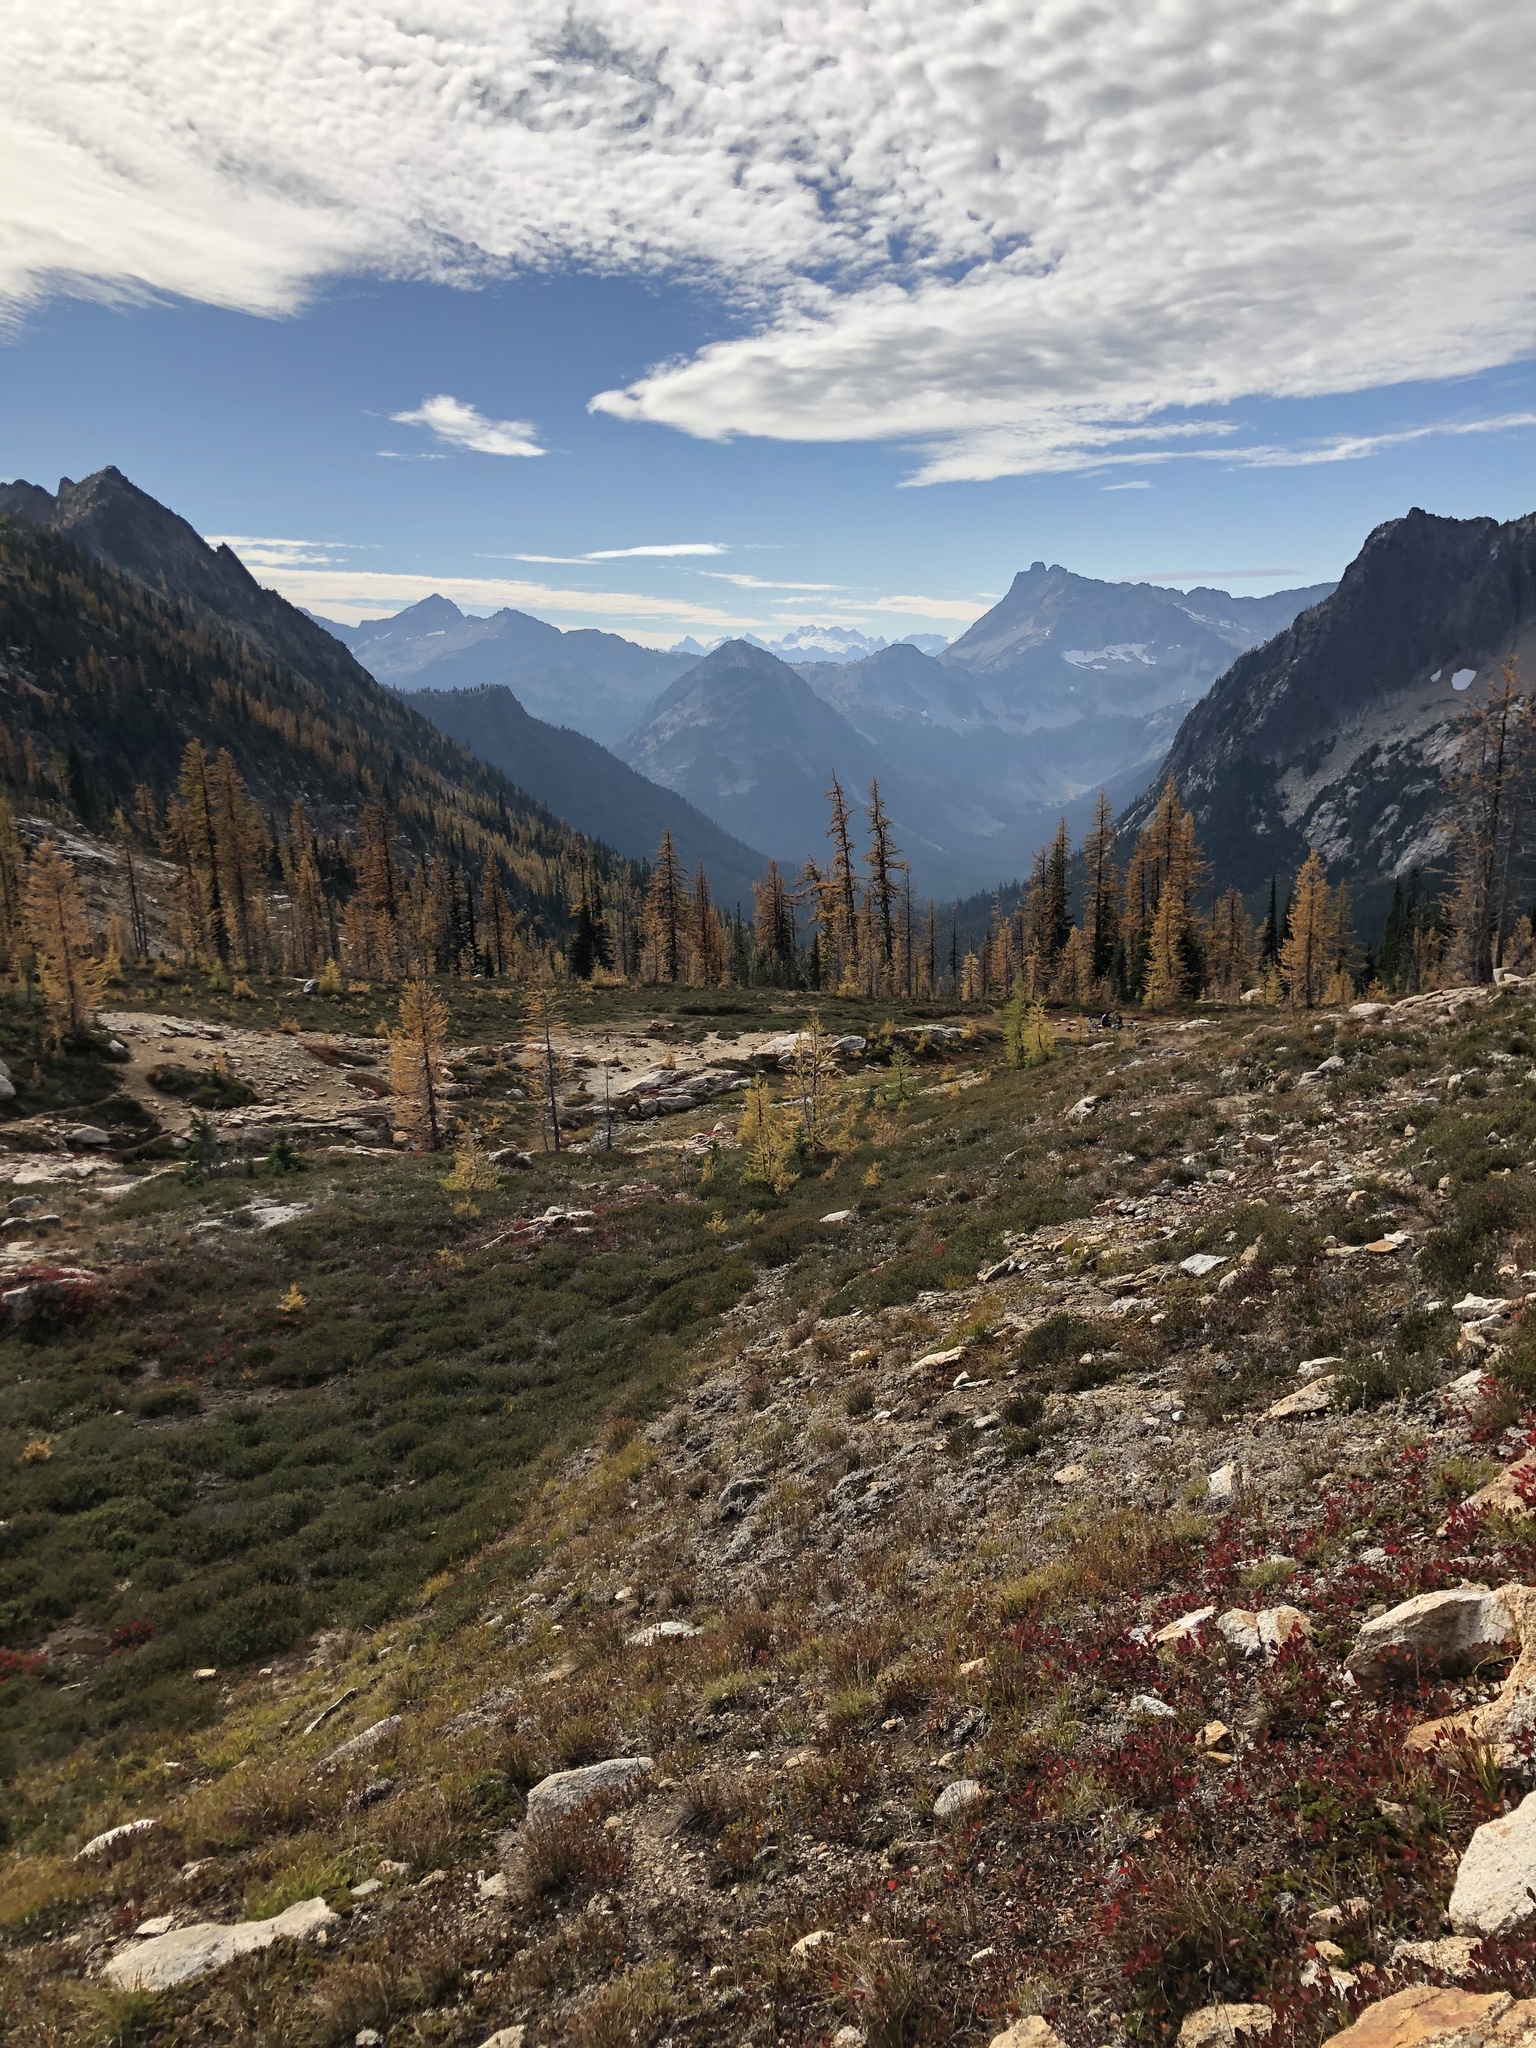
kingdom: Plantae
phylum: Tracheophyta
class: Pinopsida
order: Pinales
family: Pinaceae
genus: Larix
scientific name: Larix lyallii
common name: Alpine larch
